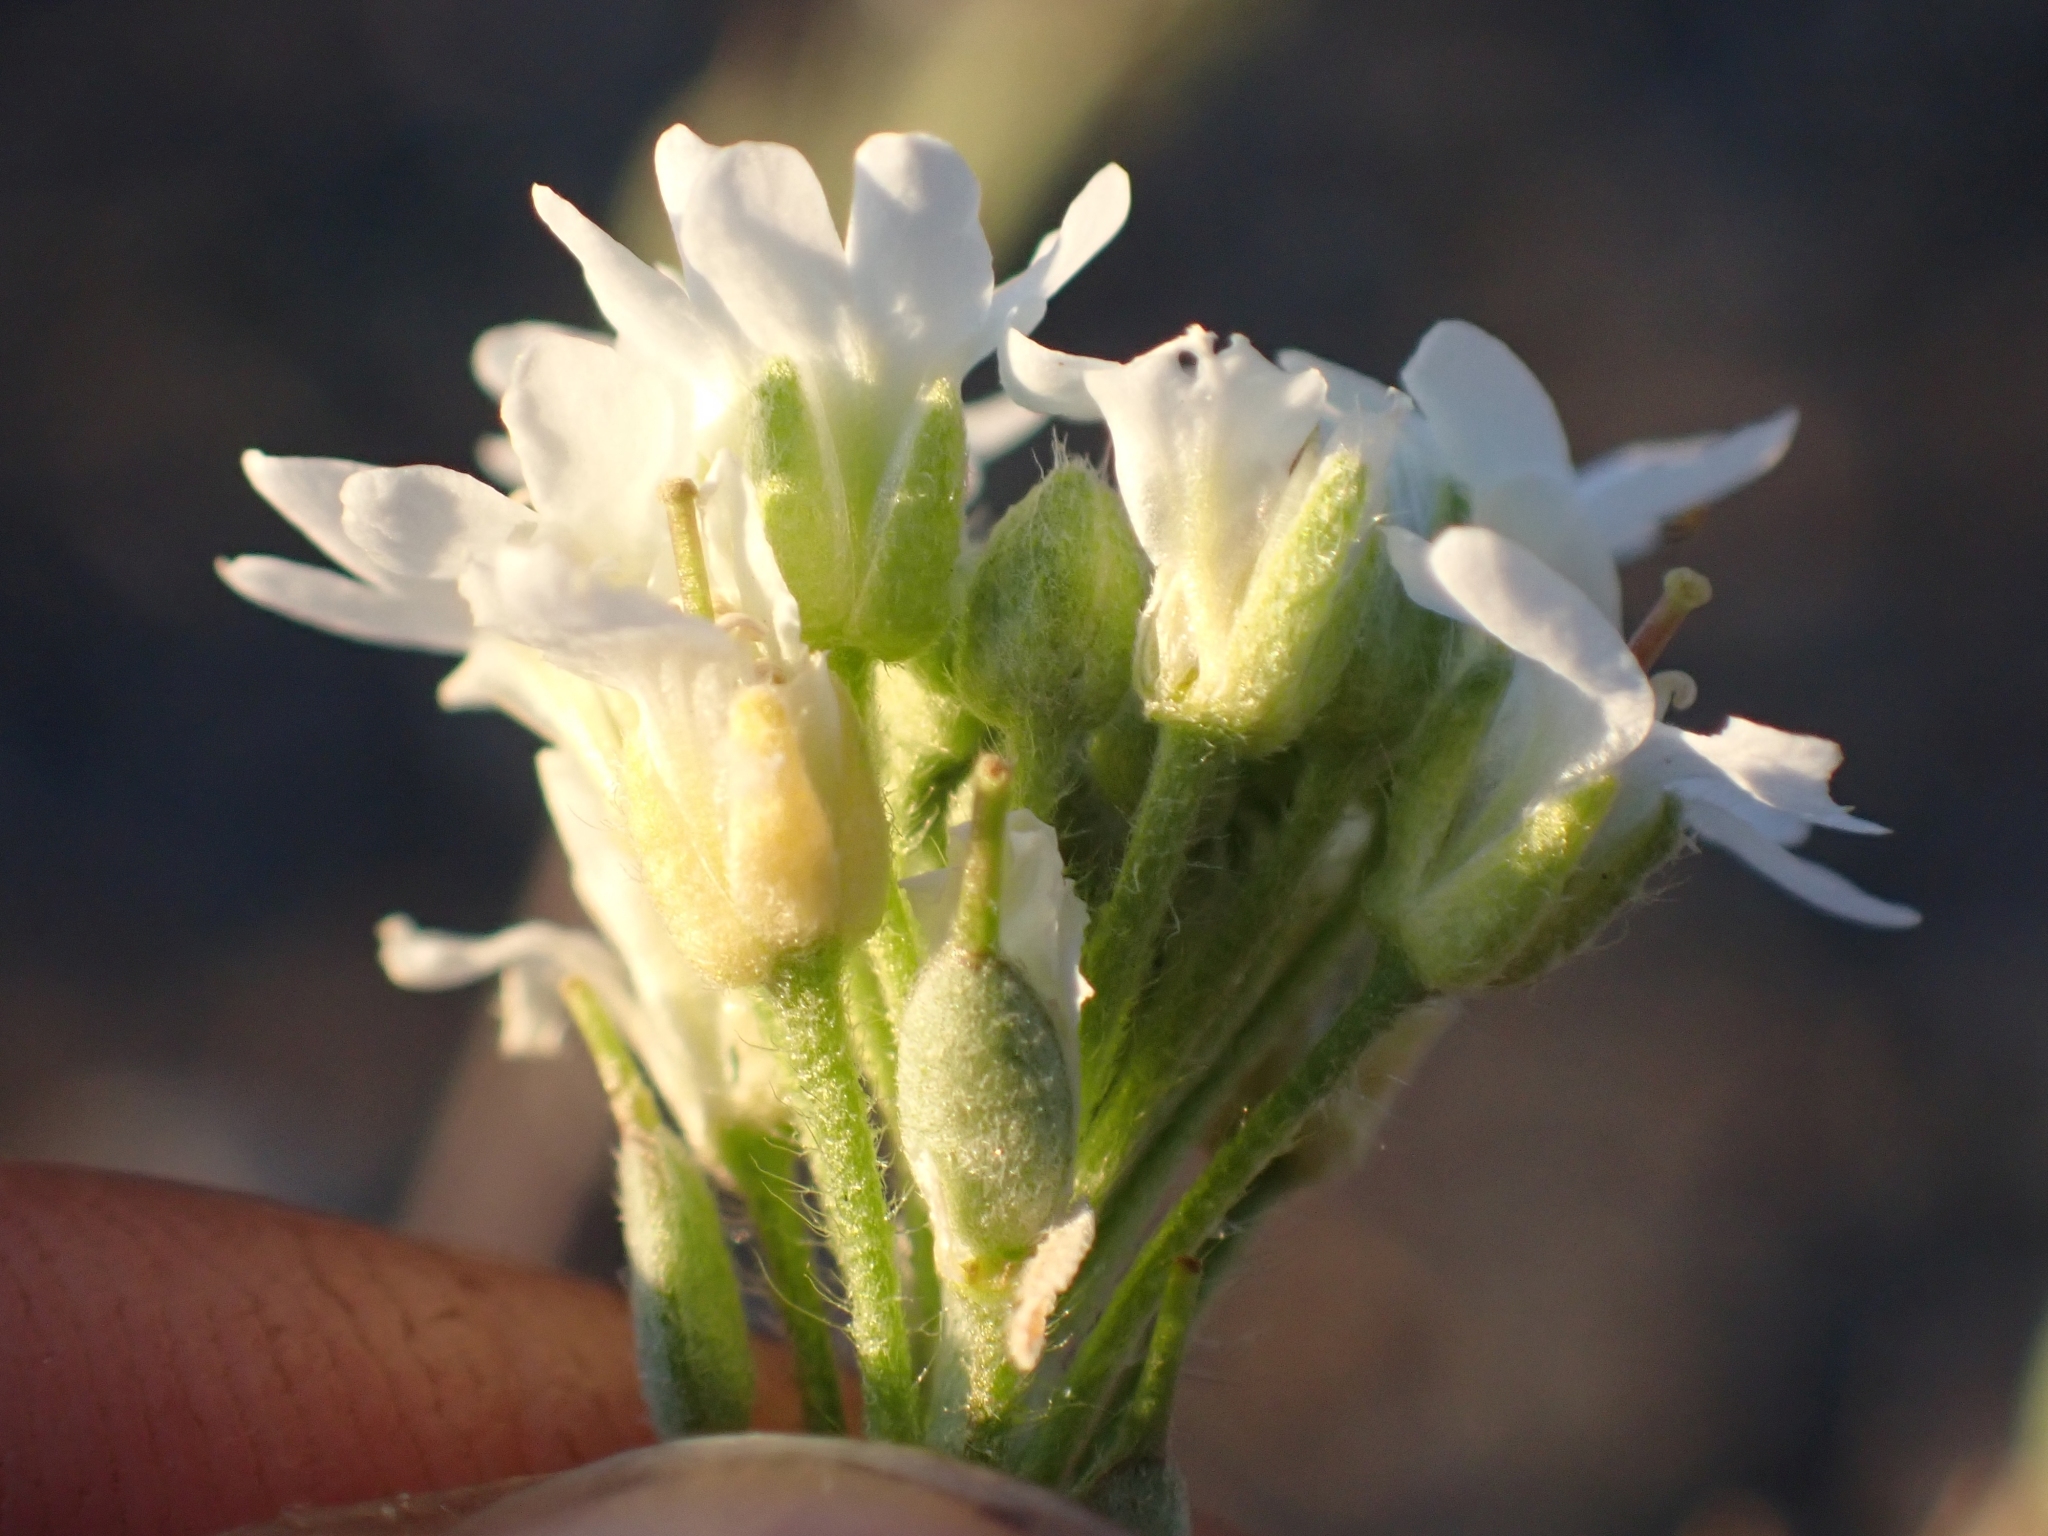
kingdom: Plantae
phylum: Tracheophyta
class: Magnoliopsida
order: Brassicales
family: Brassicaceae
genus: Berteroa
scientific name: Berteroa incana
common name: Hoary alison
